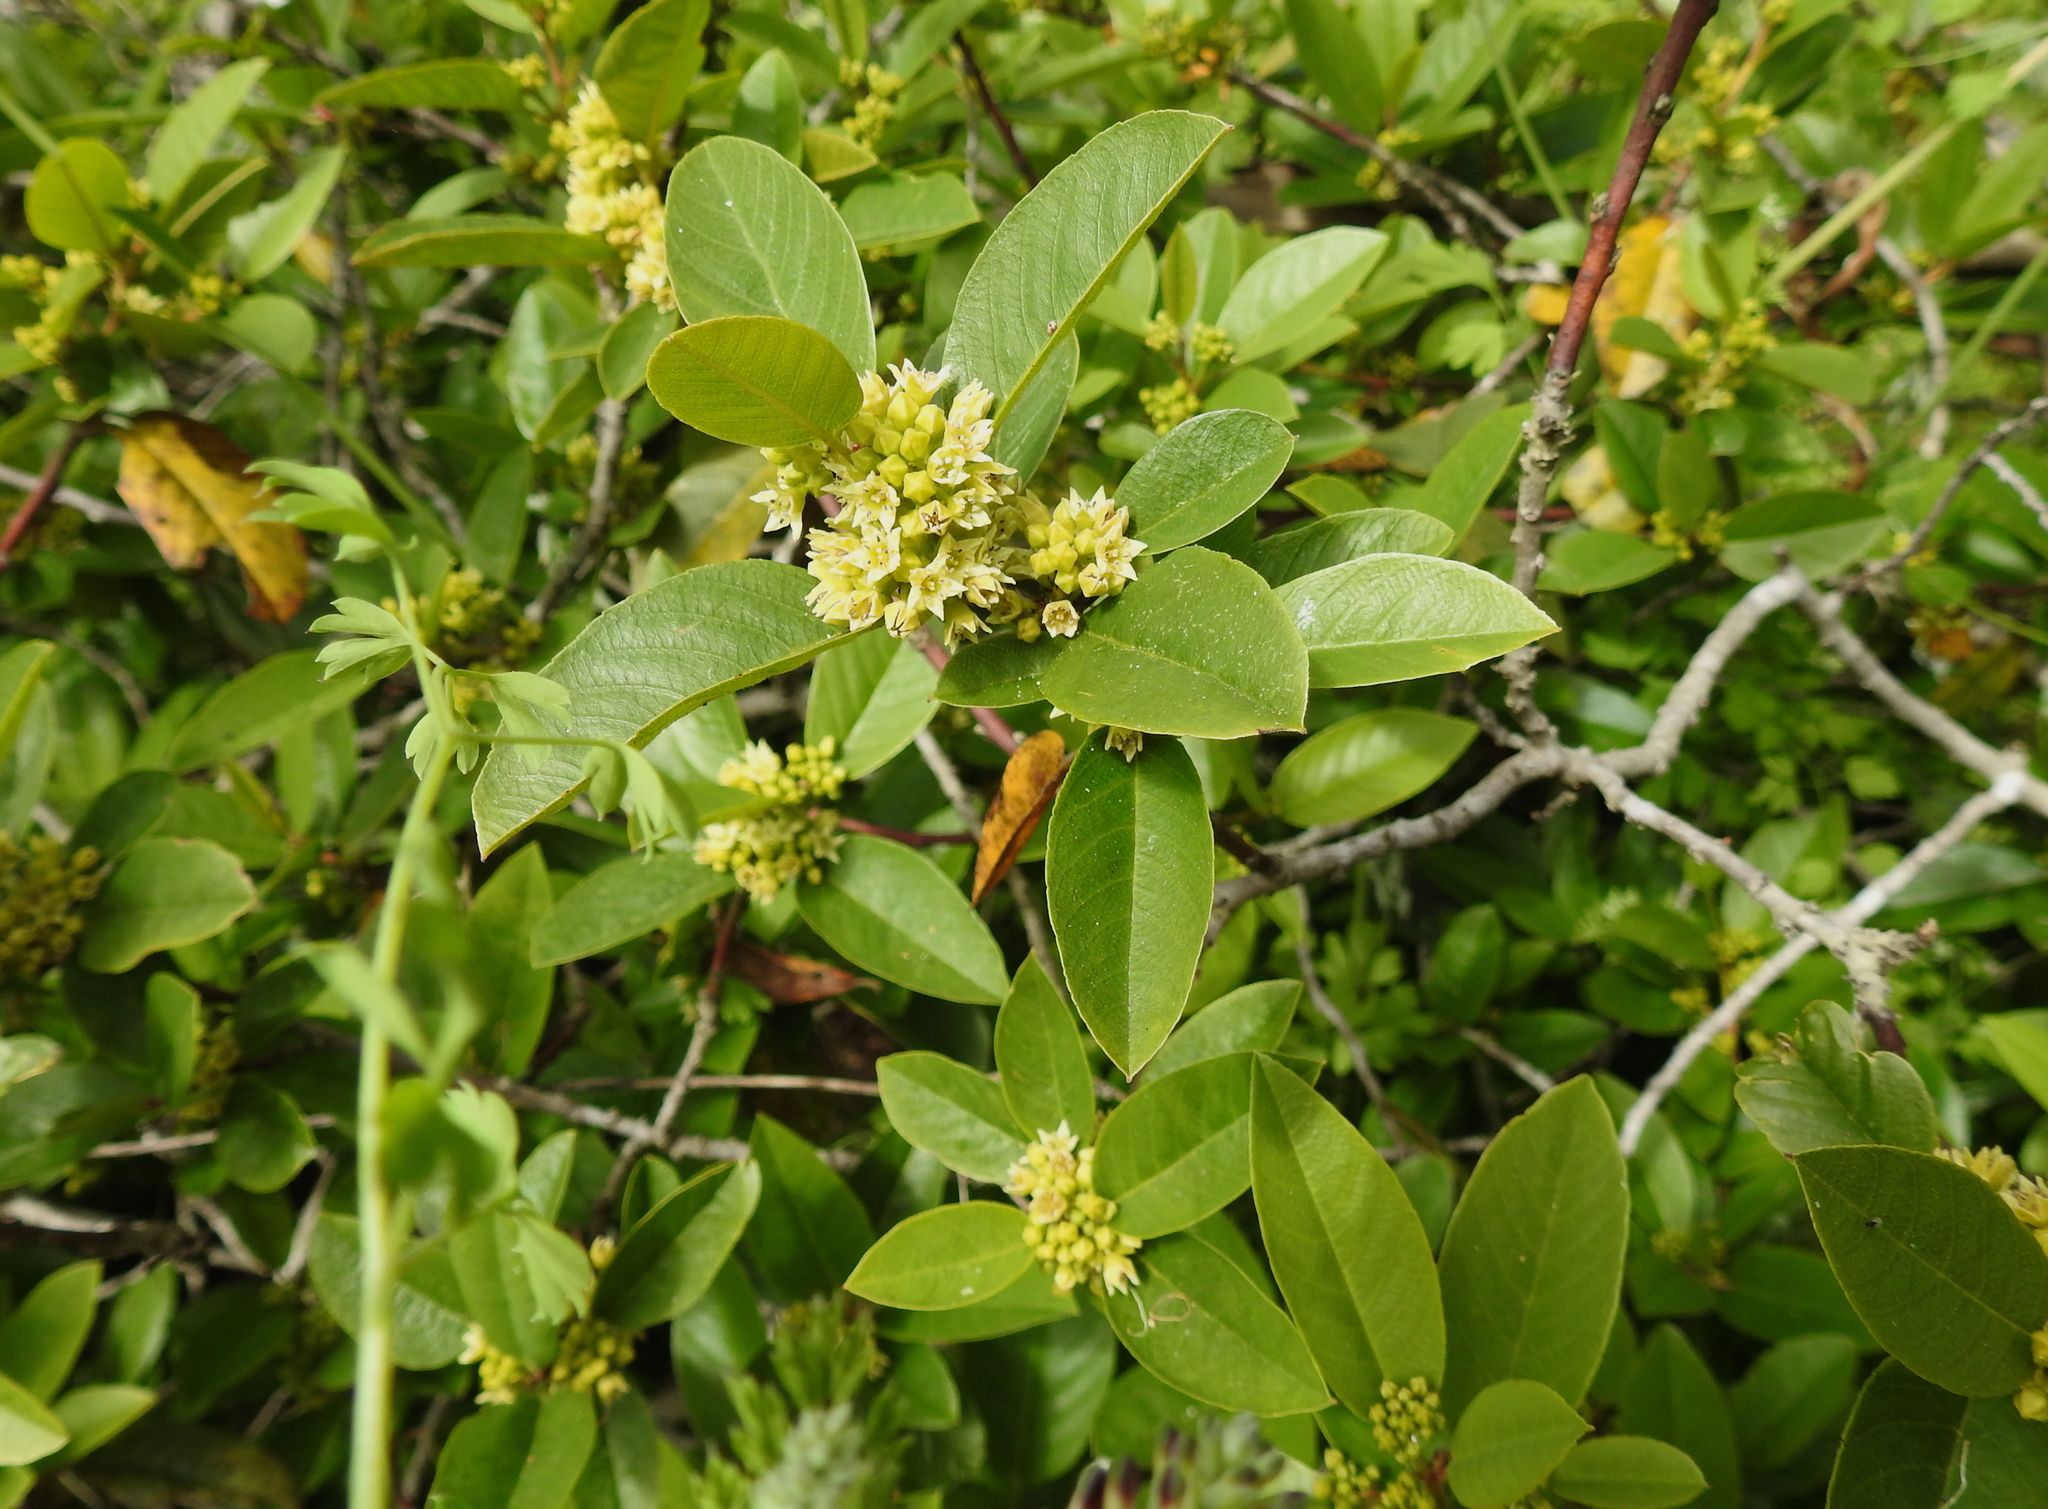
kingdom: Plantae
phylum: Tracheophyta
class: Magnoliopsida
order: Rosales
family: Rhamnaceae
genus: Frangula
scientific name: Frangula californica
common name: California buckthorn
